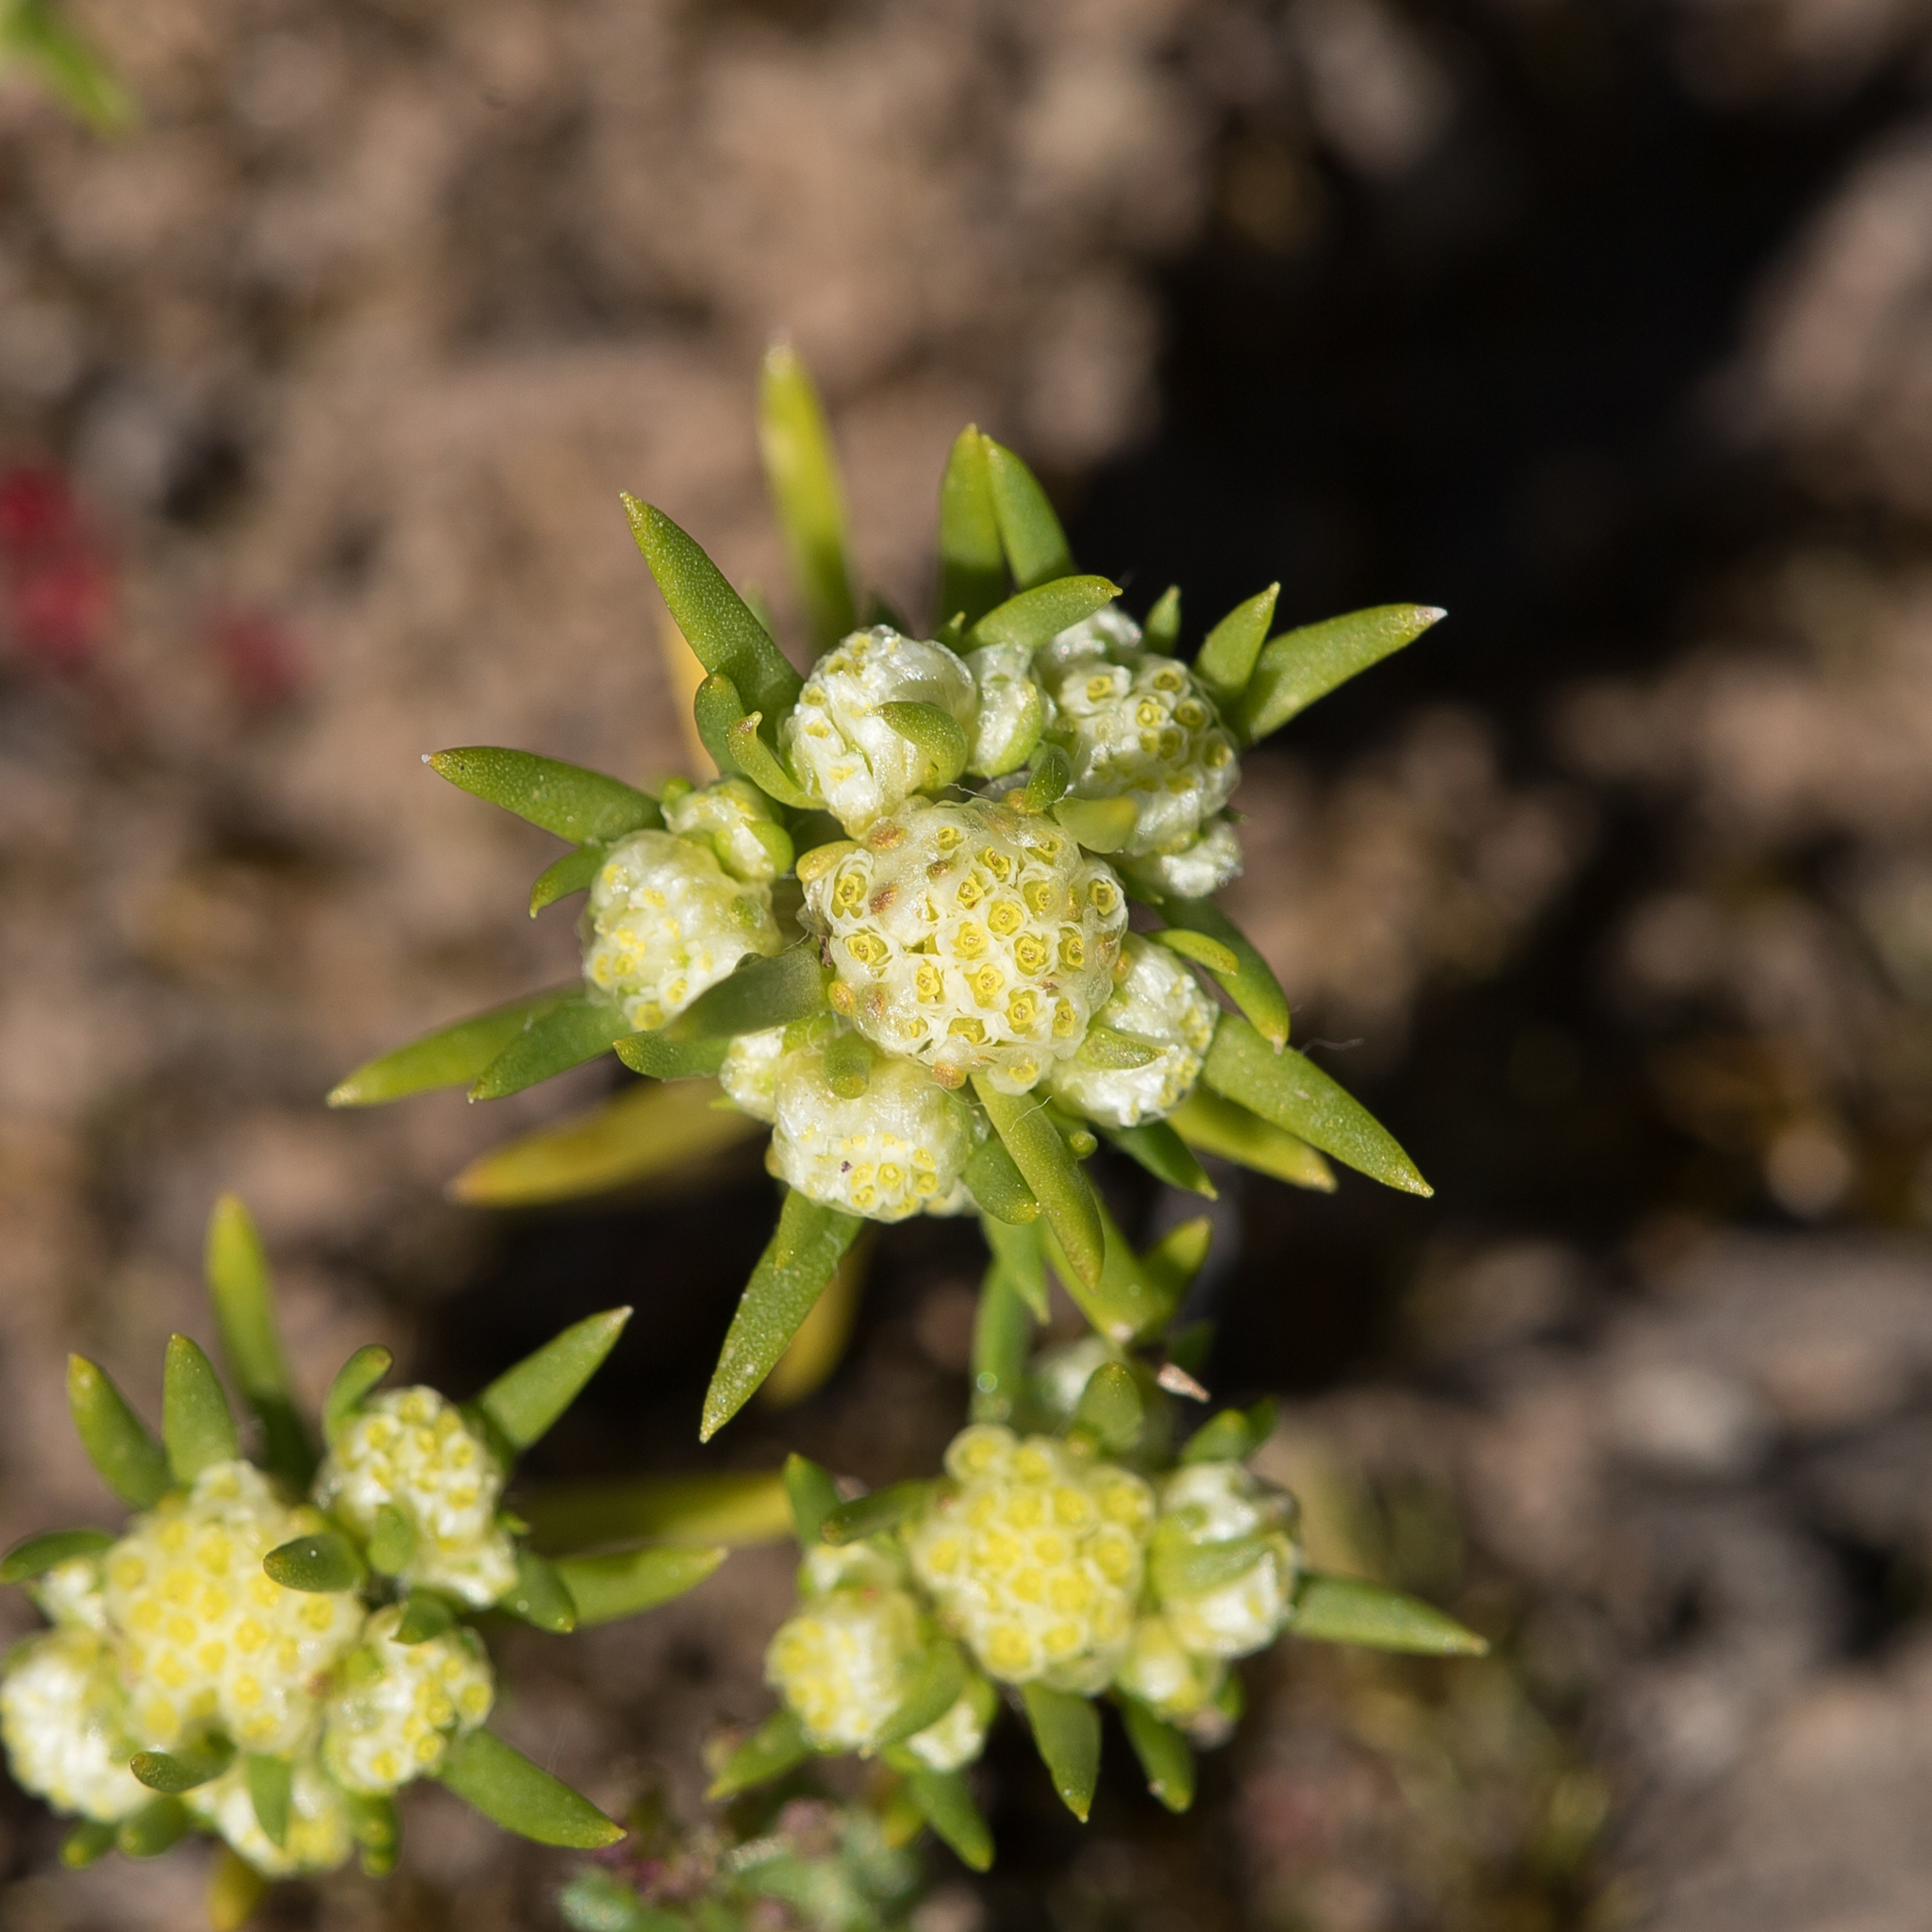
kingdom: Plantae
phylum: Tracheophyta
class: Magnoliopsida
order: Asterales
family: Asteraceae
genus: Siloxerus
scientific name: Siloxerus multiflorus
